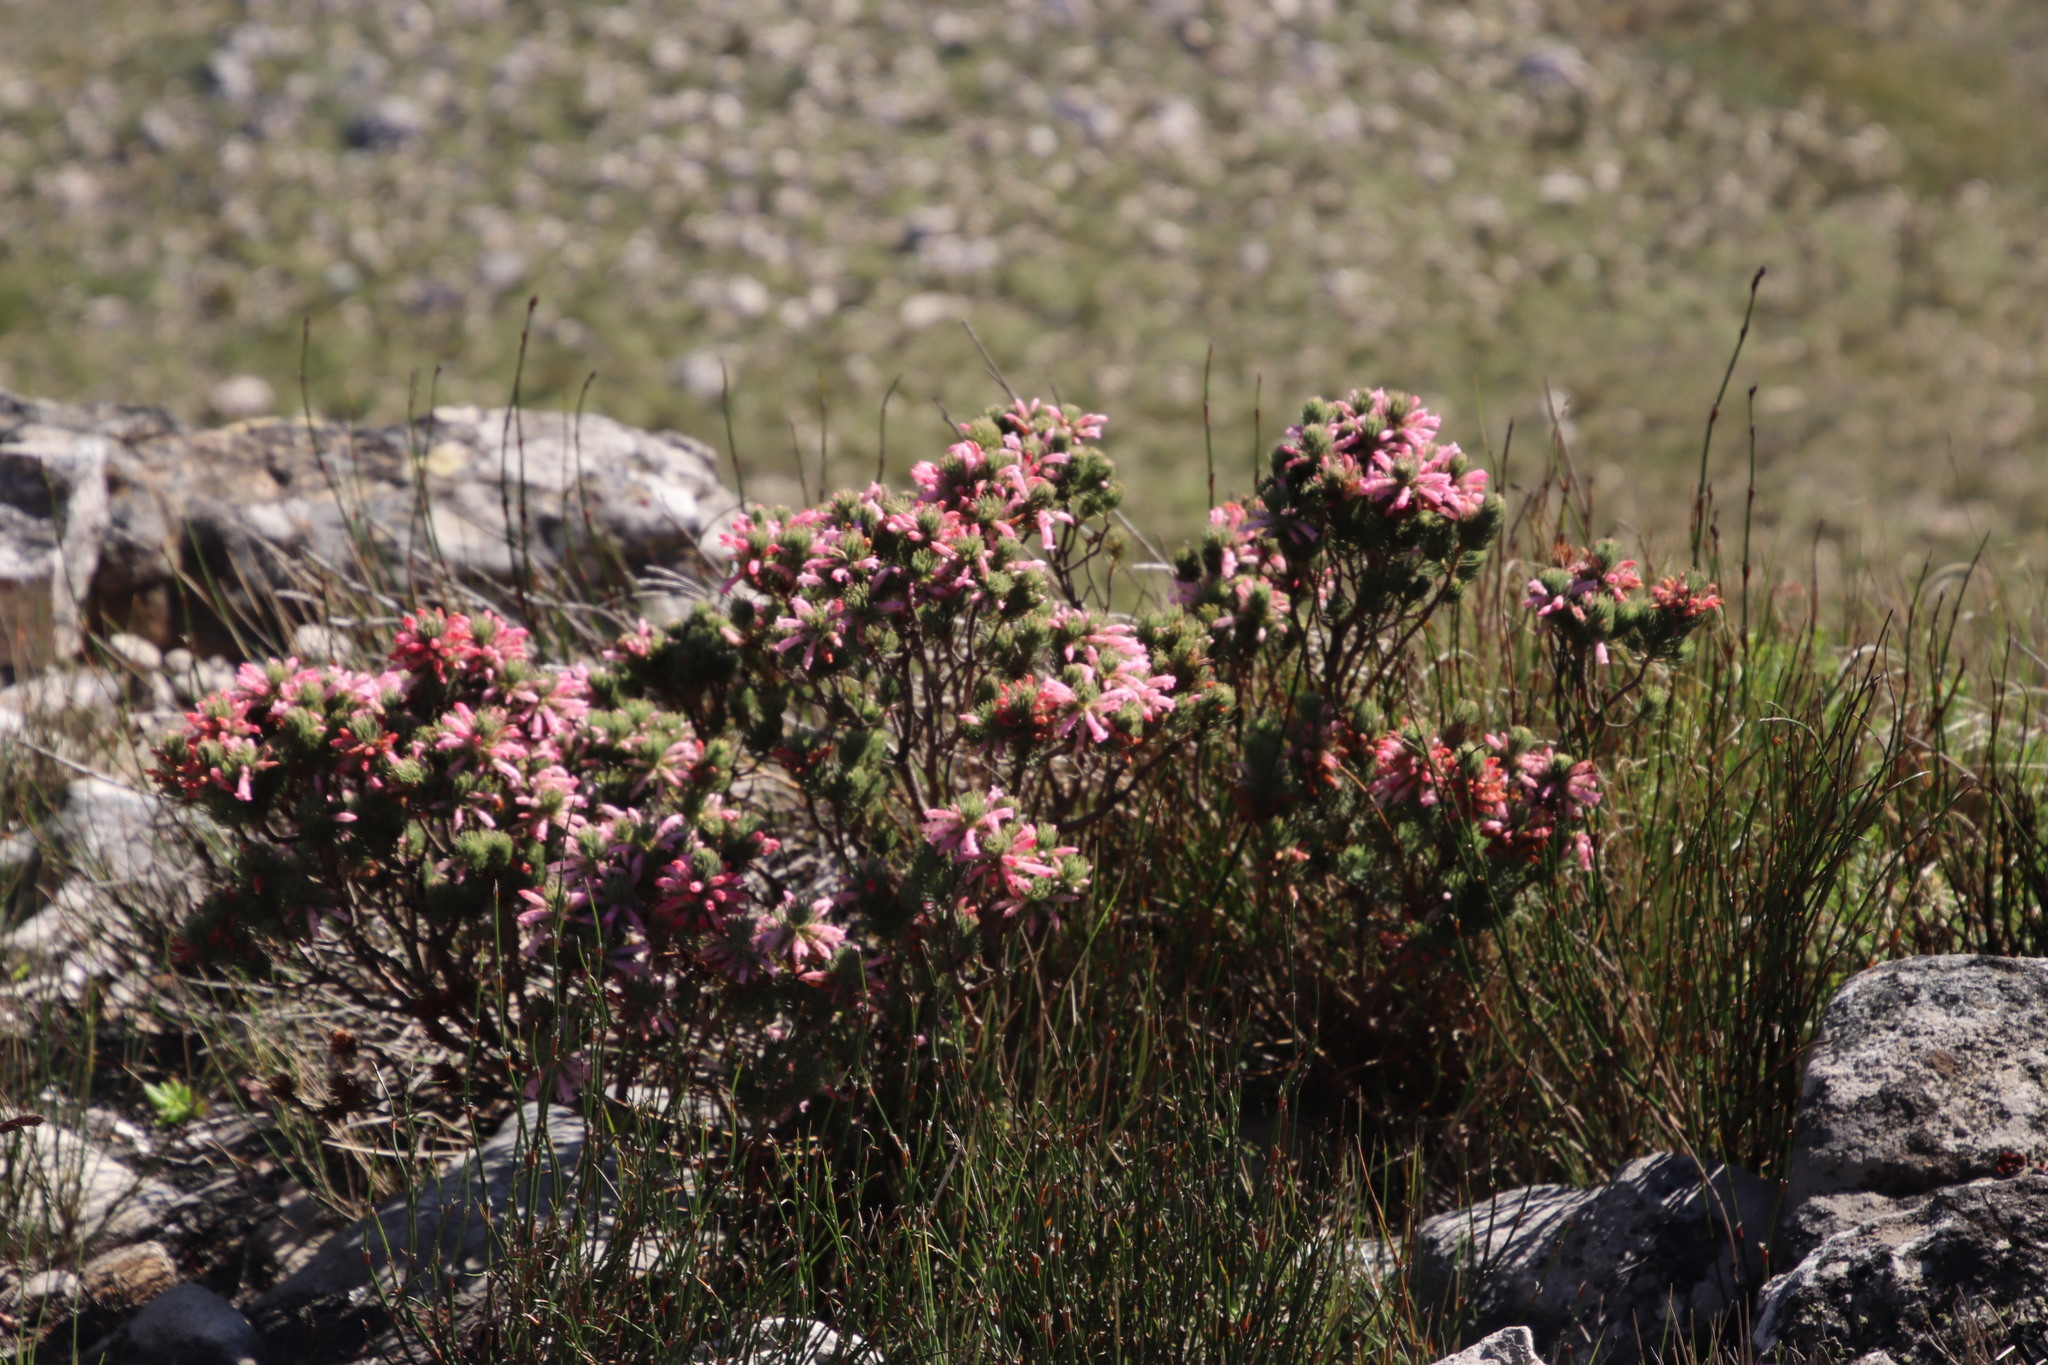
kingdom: Plantae
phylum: Tracheophyta
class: Magnoliopsida
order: Ericales
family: Ericaceae
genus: Erica
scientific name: Erica viscaria
